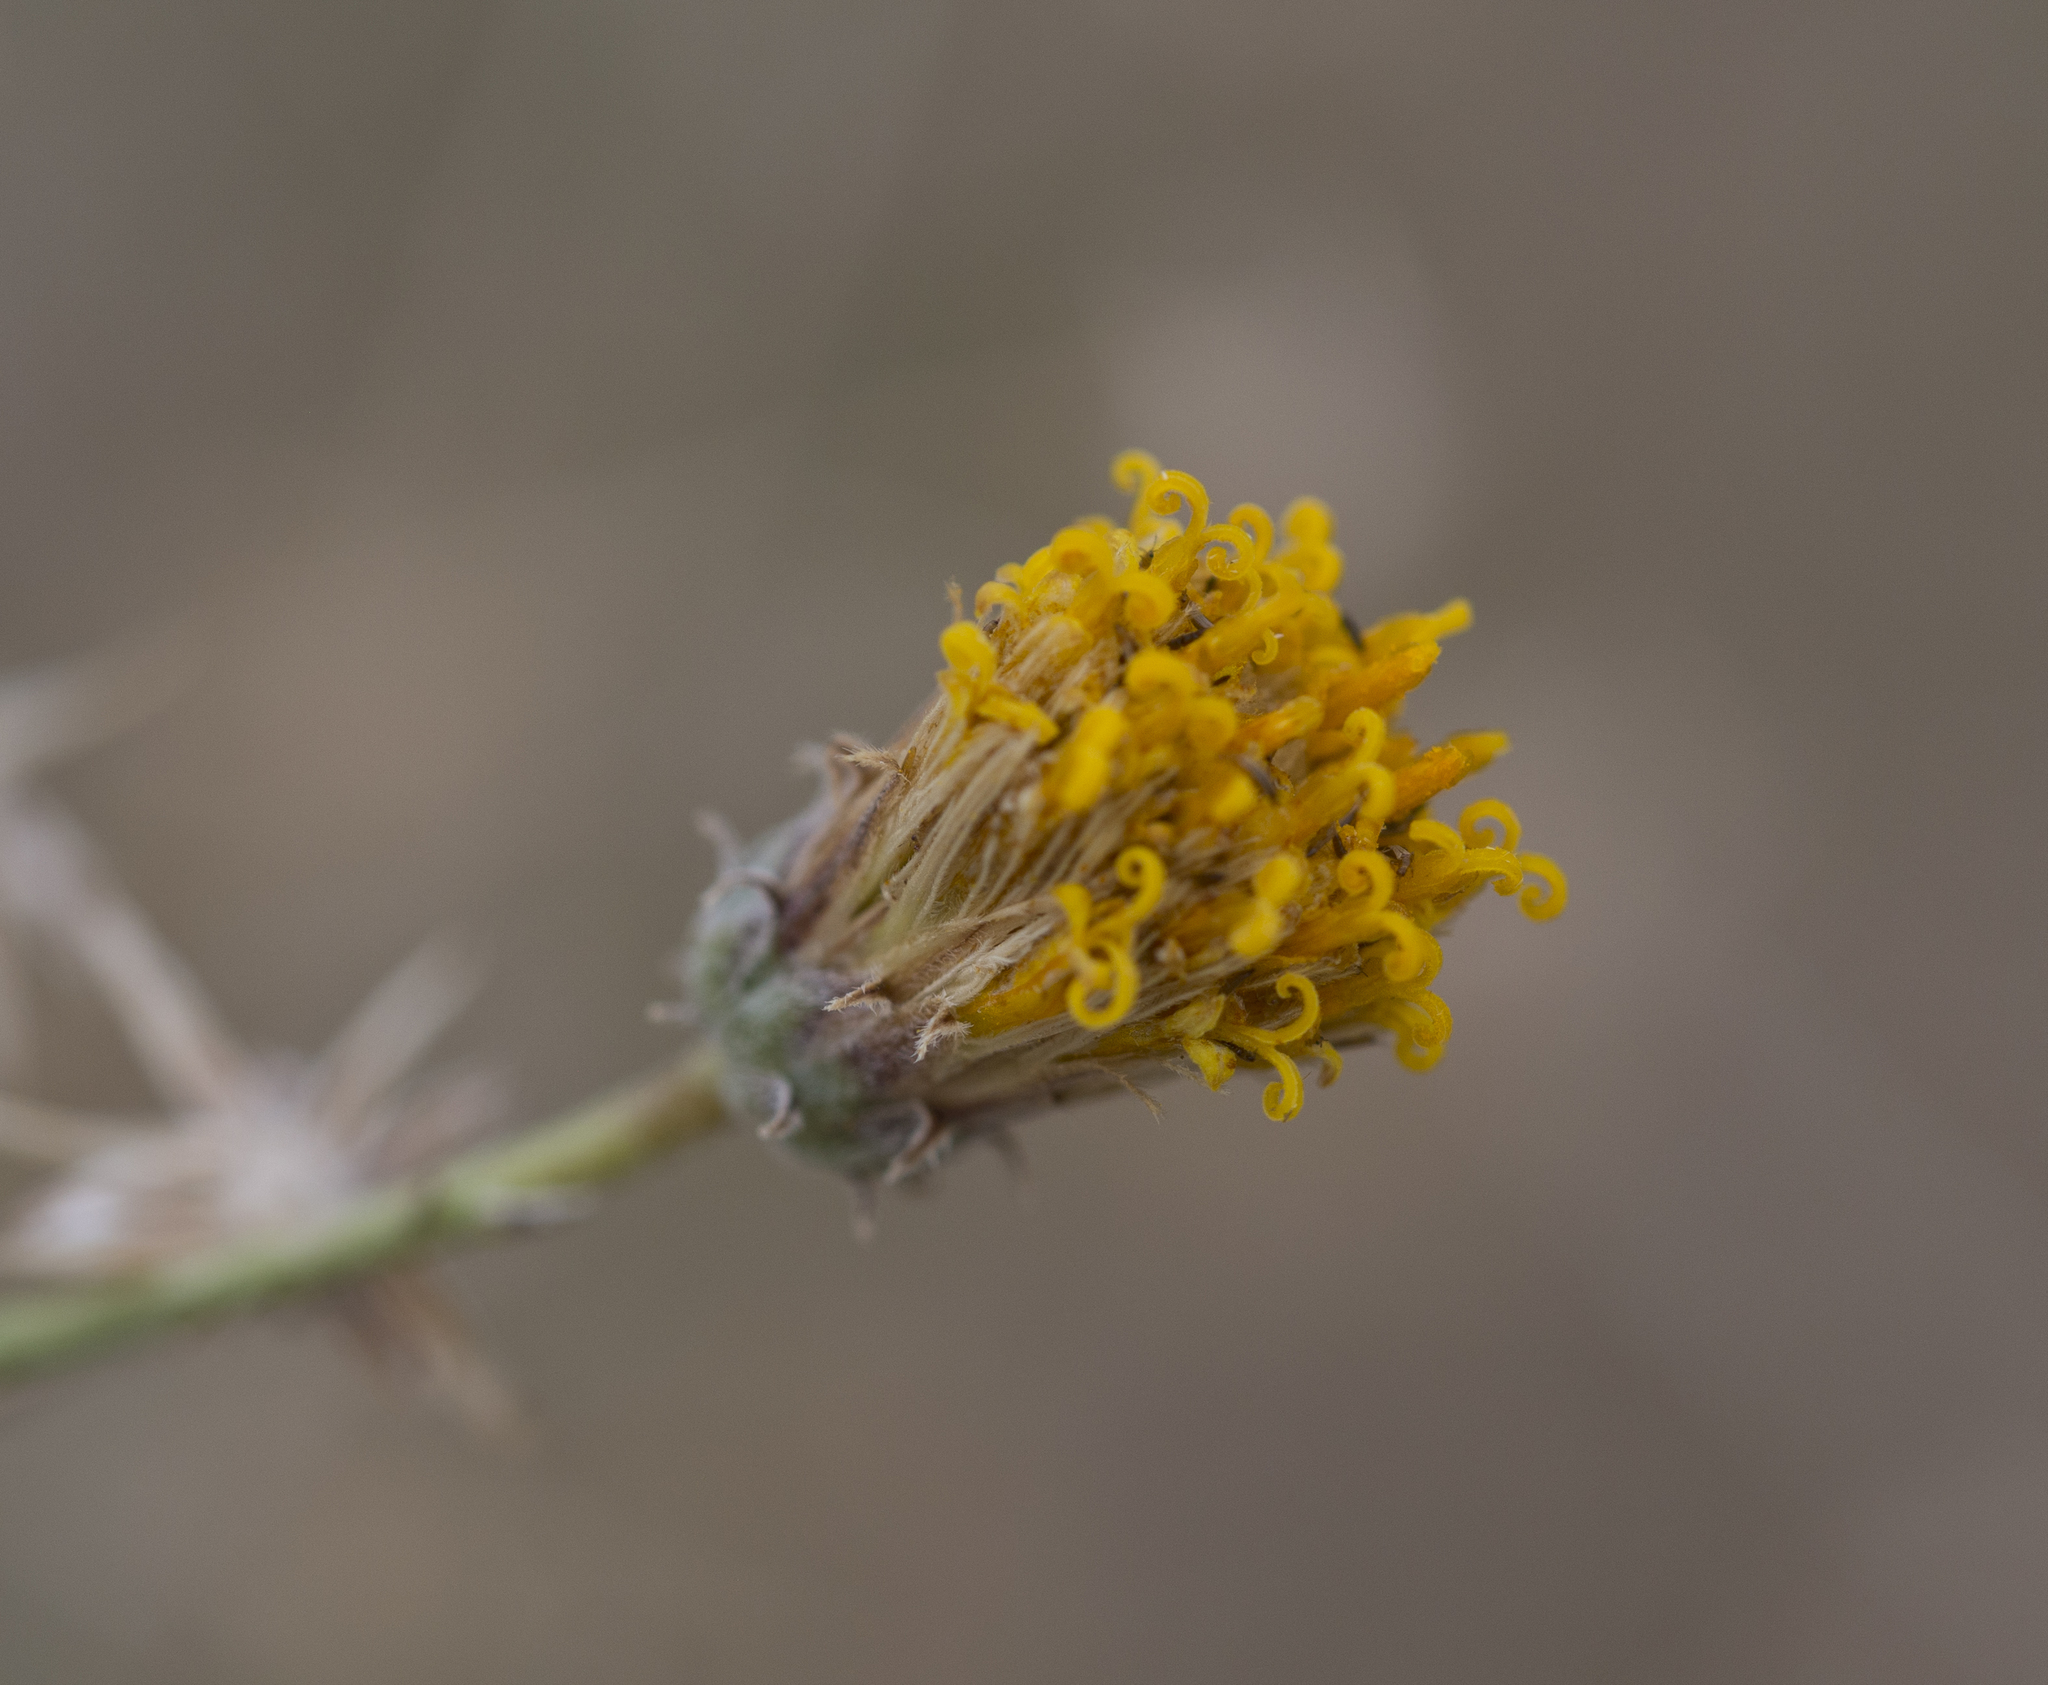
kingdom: Plantae
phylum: Tracheophyta
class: Magnoliopsida
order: Asterales
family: Asteraceae
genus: Bebbia
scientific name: Bebbia juncea
